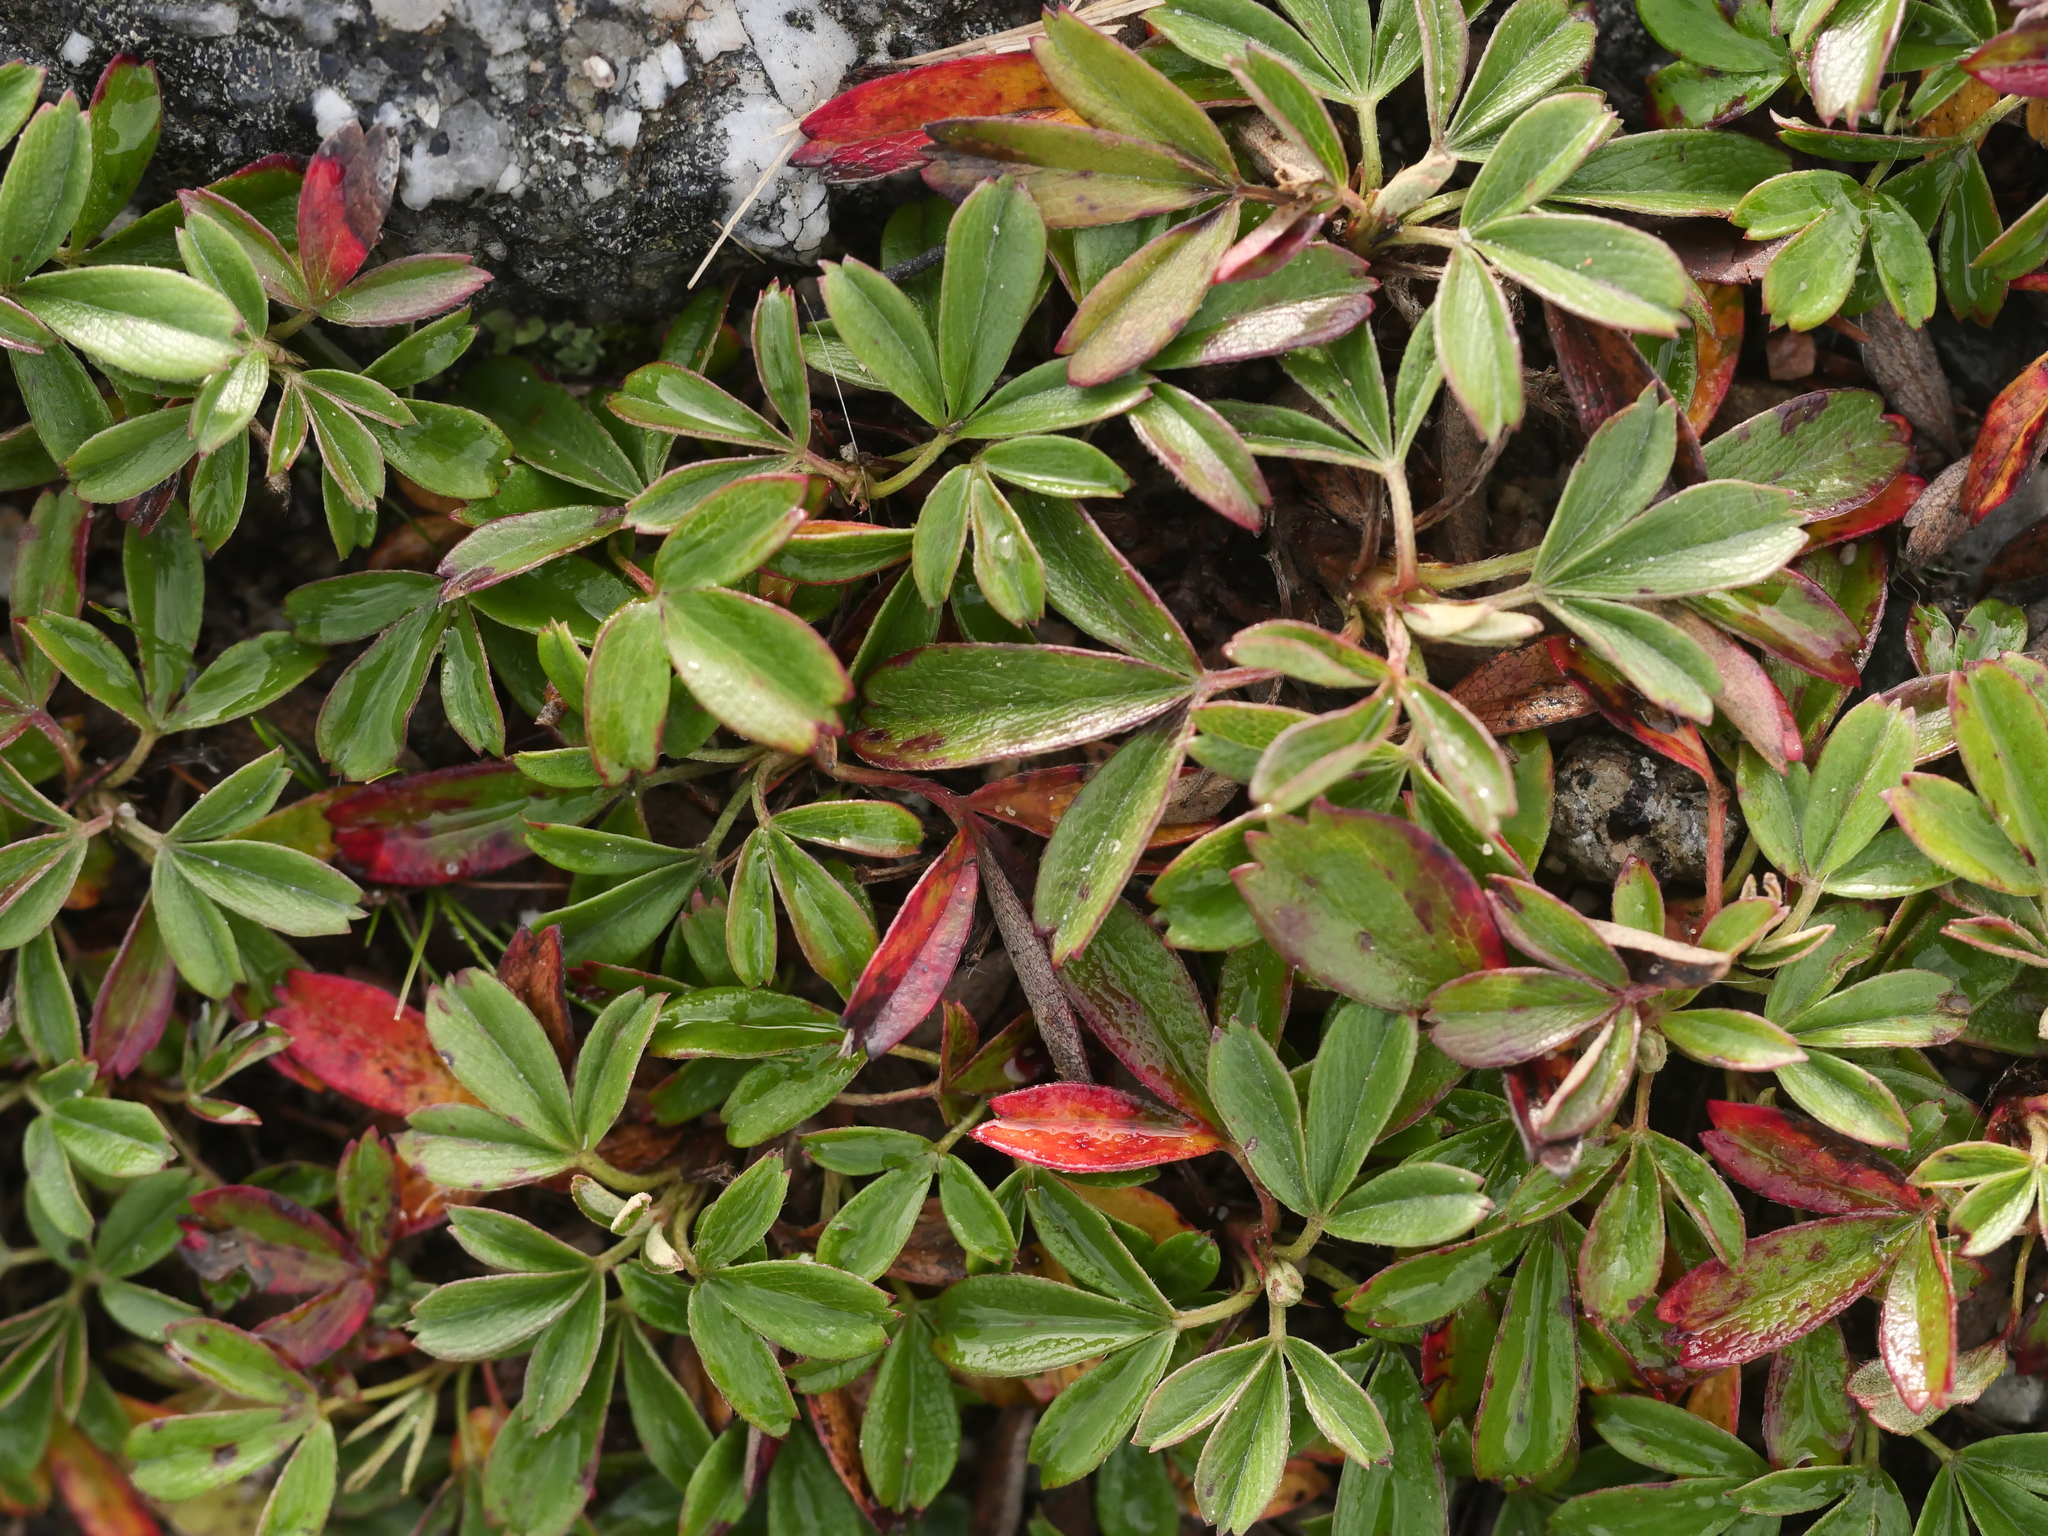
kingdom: Plantae
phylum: Tracheophyta
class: Magnoliopsida
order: Rosales
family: Rosaceae
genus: Sibbaldia
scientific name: Sibbaldia tridentata
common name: Three-toothed cinquefoil
